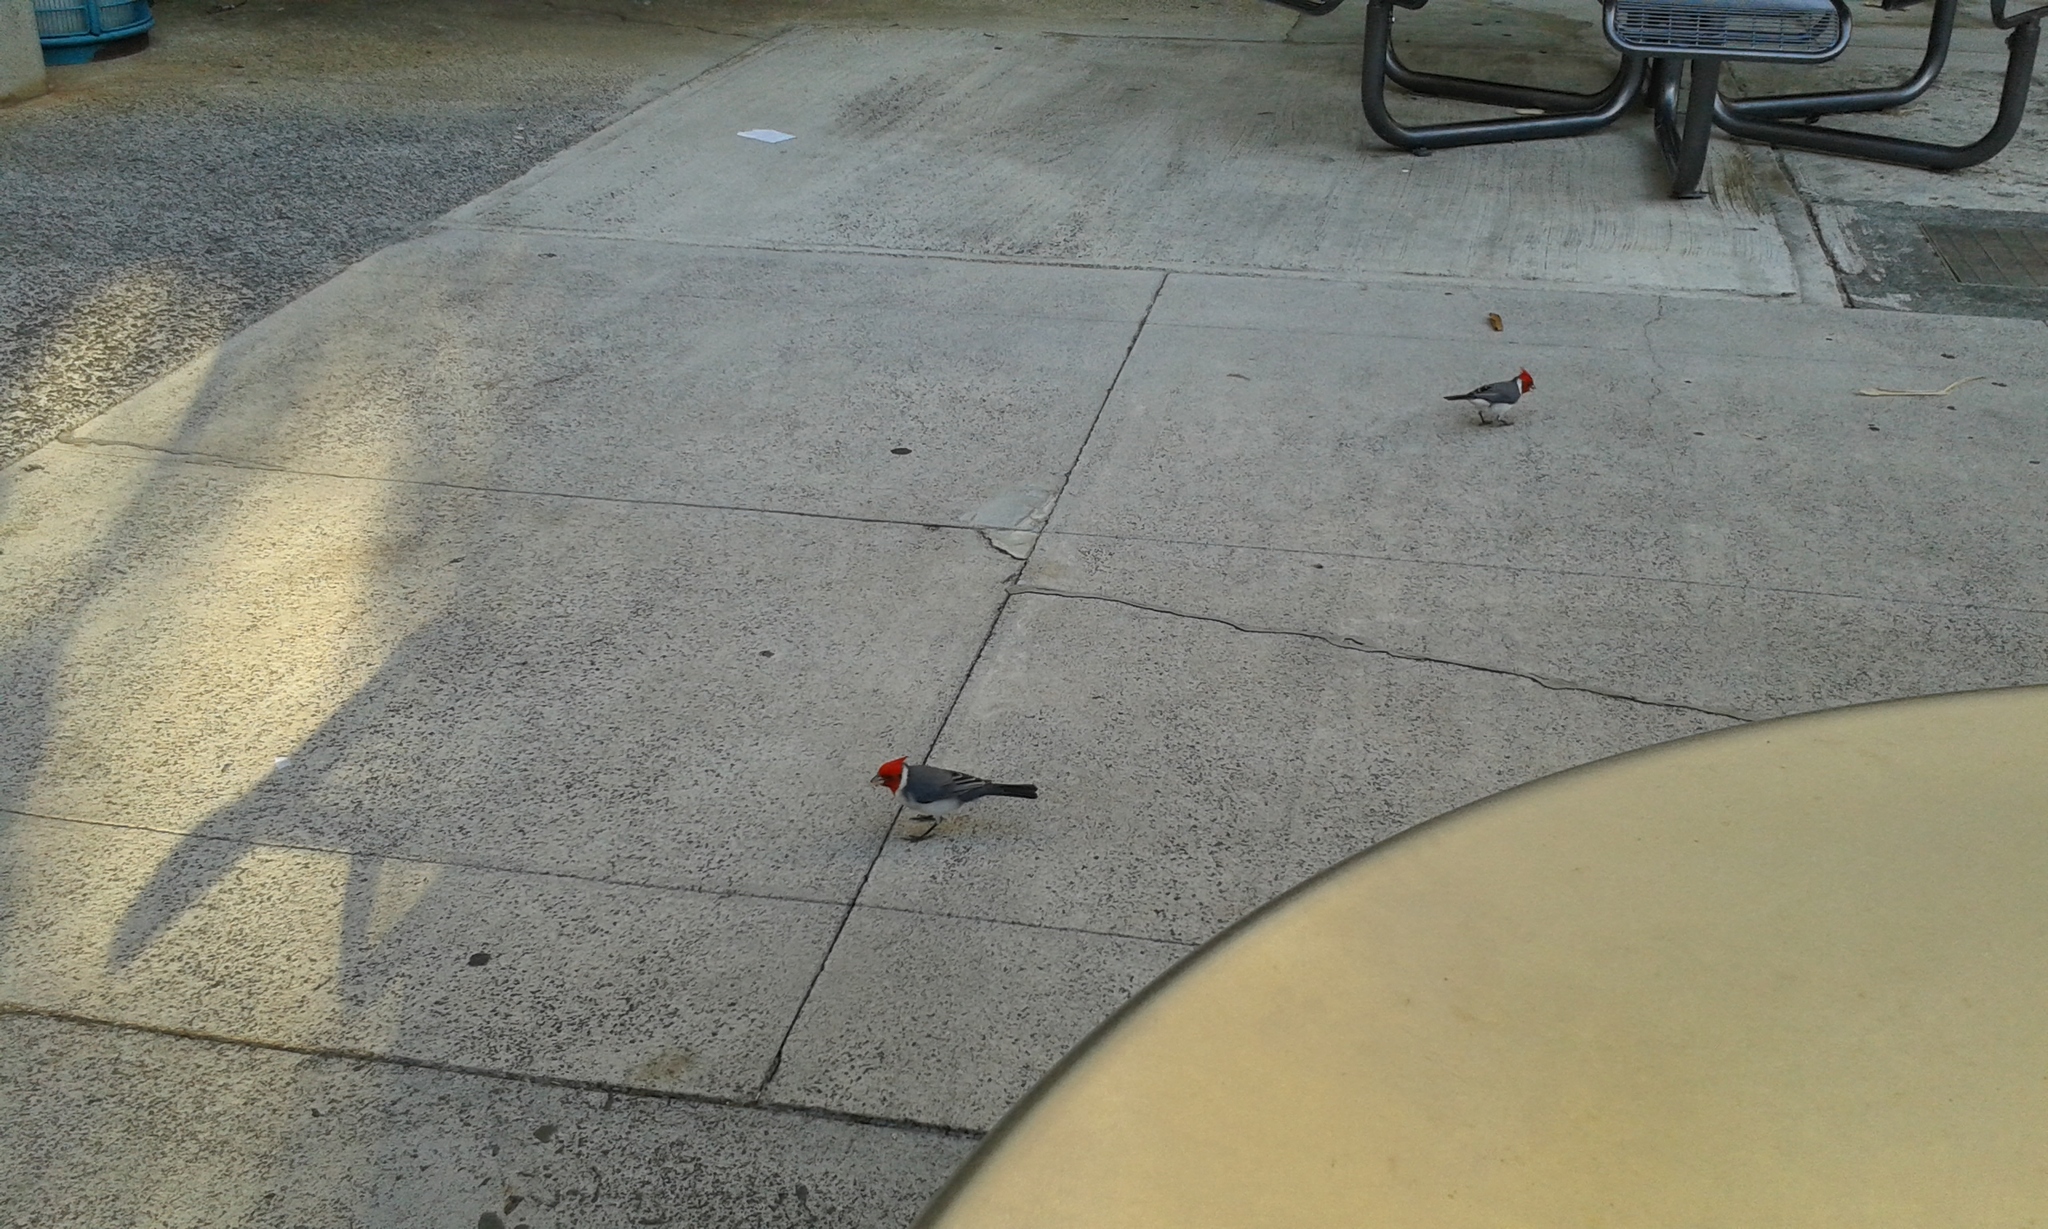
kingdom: Animalia
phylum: Chordata
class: Aves
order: Passeriformes
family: Thraupidae
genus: Paroaria
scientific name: Paroaria coronata
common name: Red-crested cardinal
